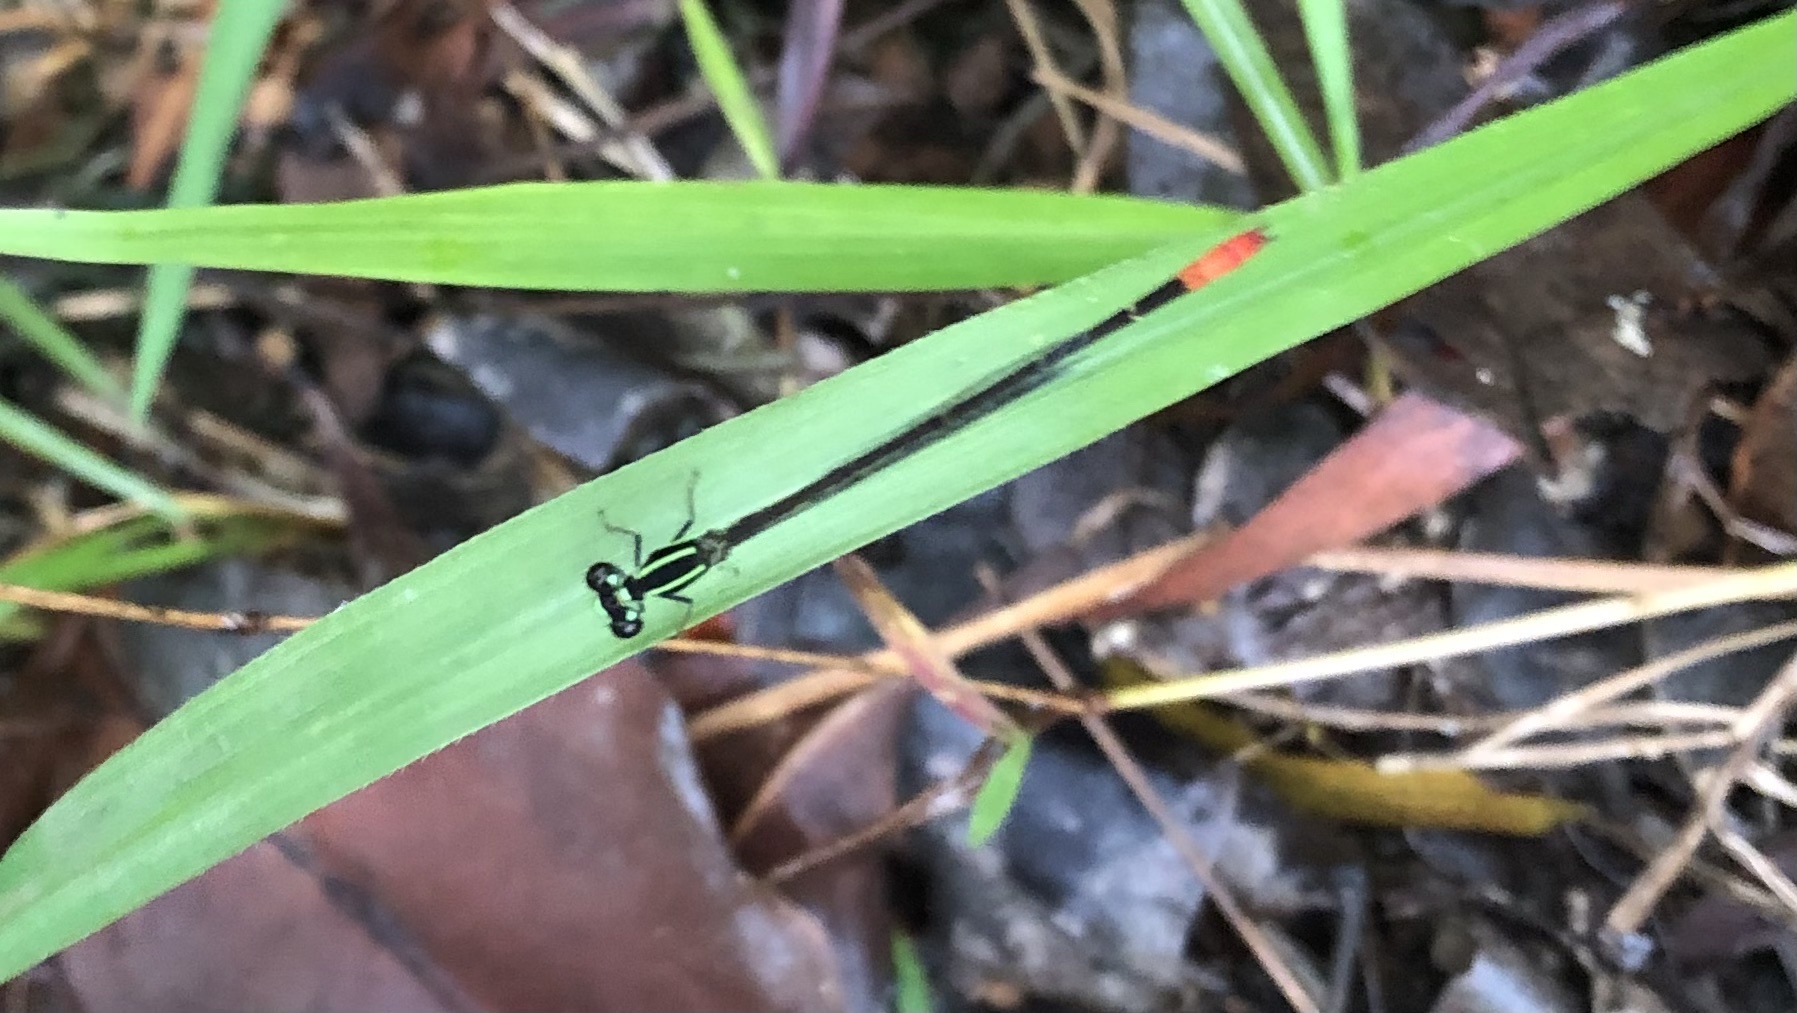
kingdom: Animalia
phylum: Arthropoda
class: Insecta
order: Odonata
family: Coenagrionidae
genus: Argiocnemis
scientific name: Argiocnemis rubescens
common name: Red-tipped shadefly
